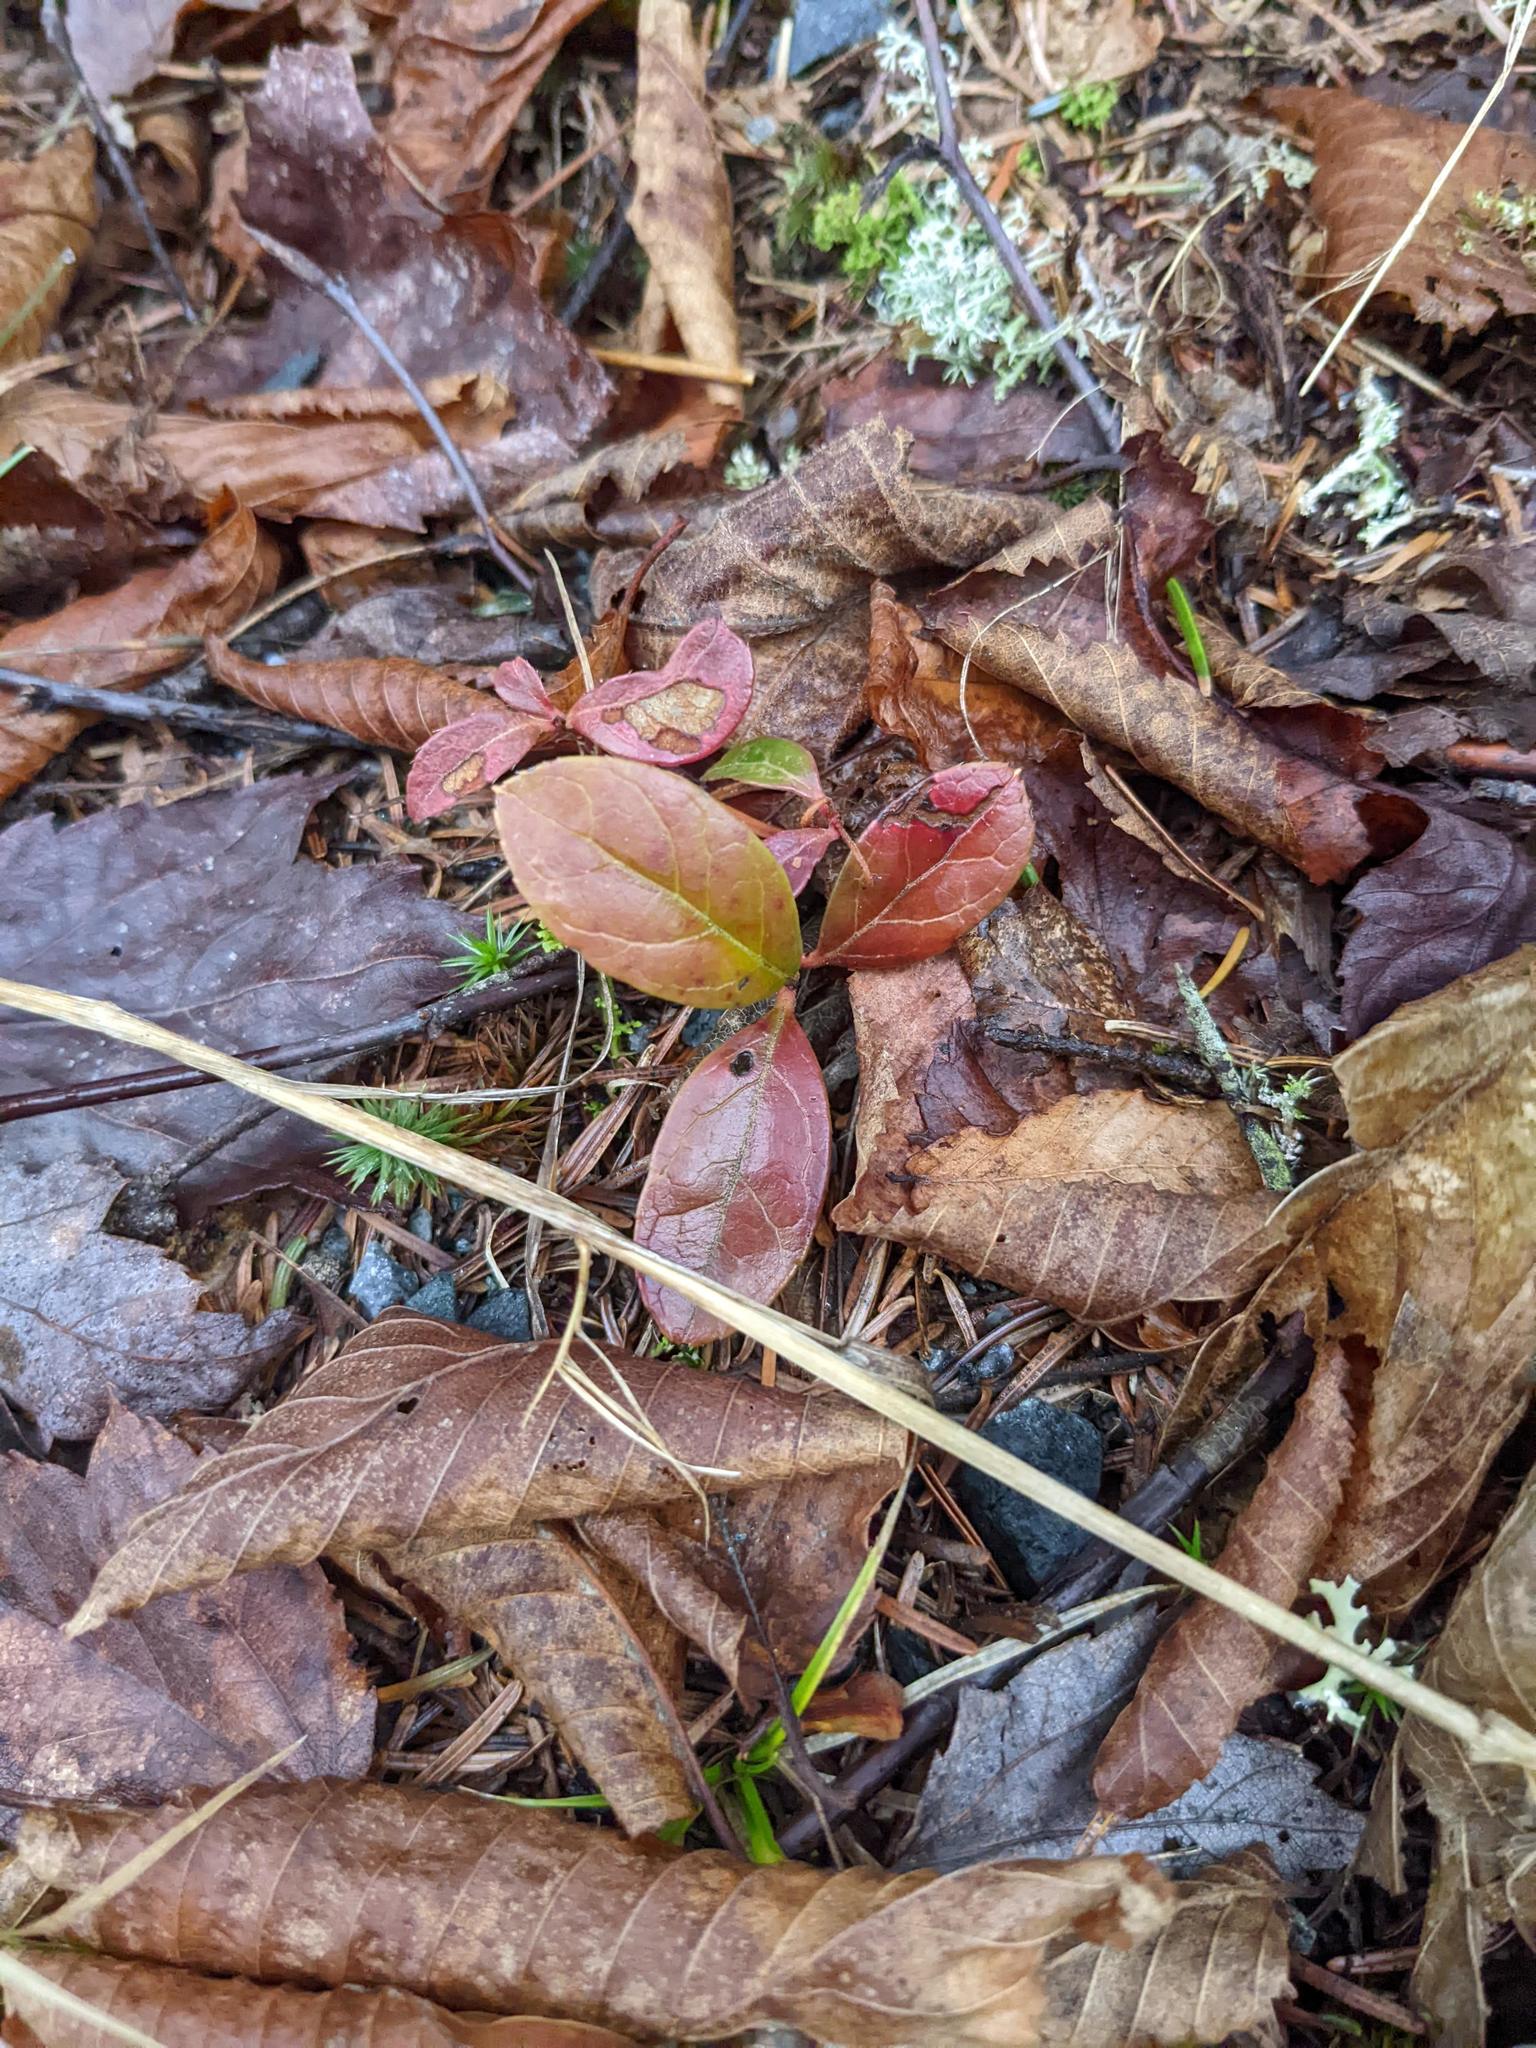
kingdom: Plantae
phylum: Tracheophyta
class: Magnoliopsida
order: Ericales
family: Ericaceae
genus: Gaultheria
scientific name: Gaultheria procumbens
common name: Checkerberry
